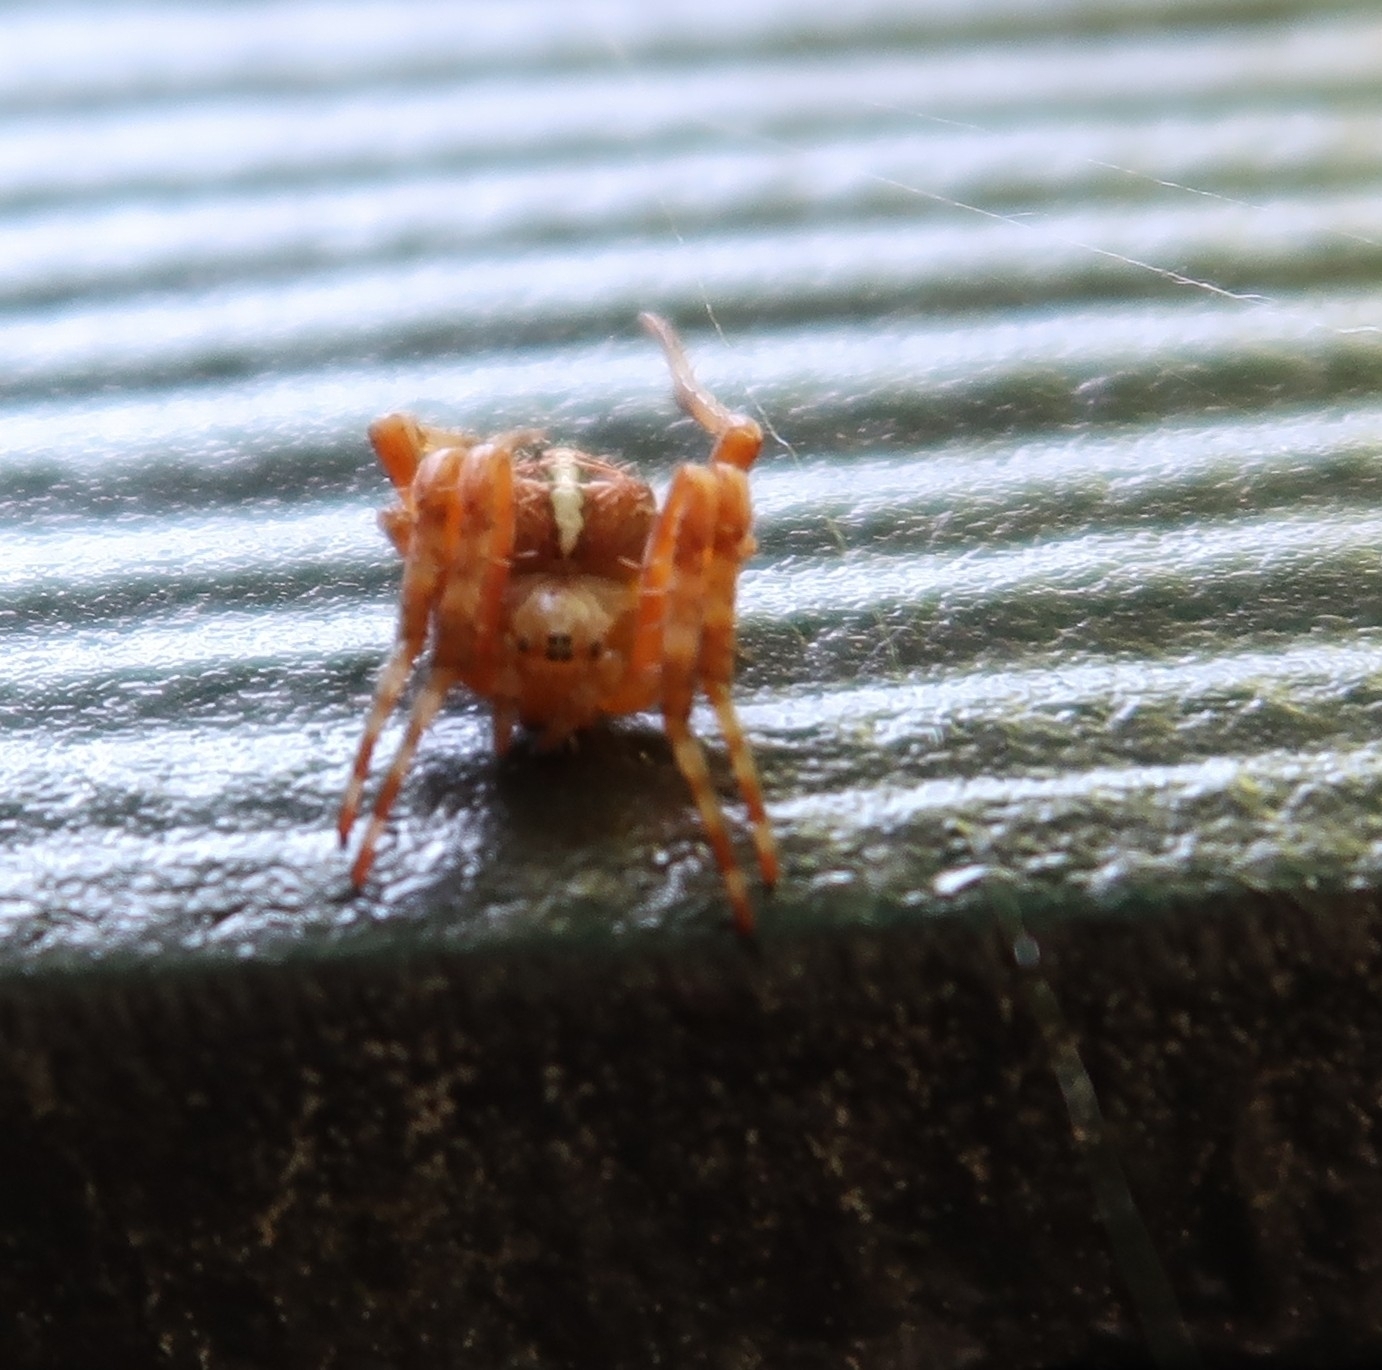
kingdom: Animalia
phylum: Arthropoda
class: Arachnida
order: Araneae
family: Araneidae
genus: Araneus
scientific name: Araneus diadematus
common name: Cross orbweaver
